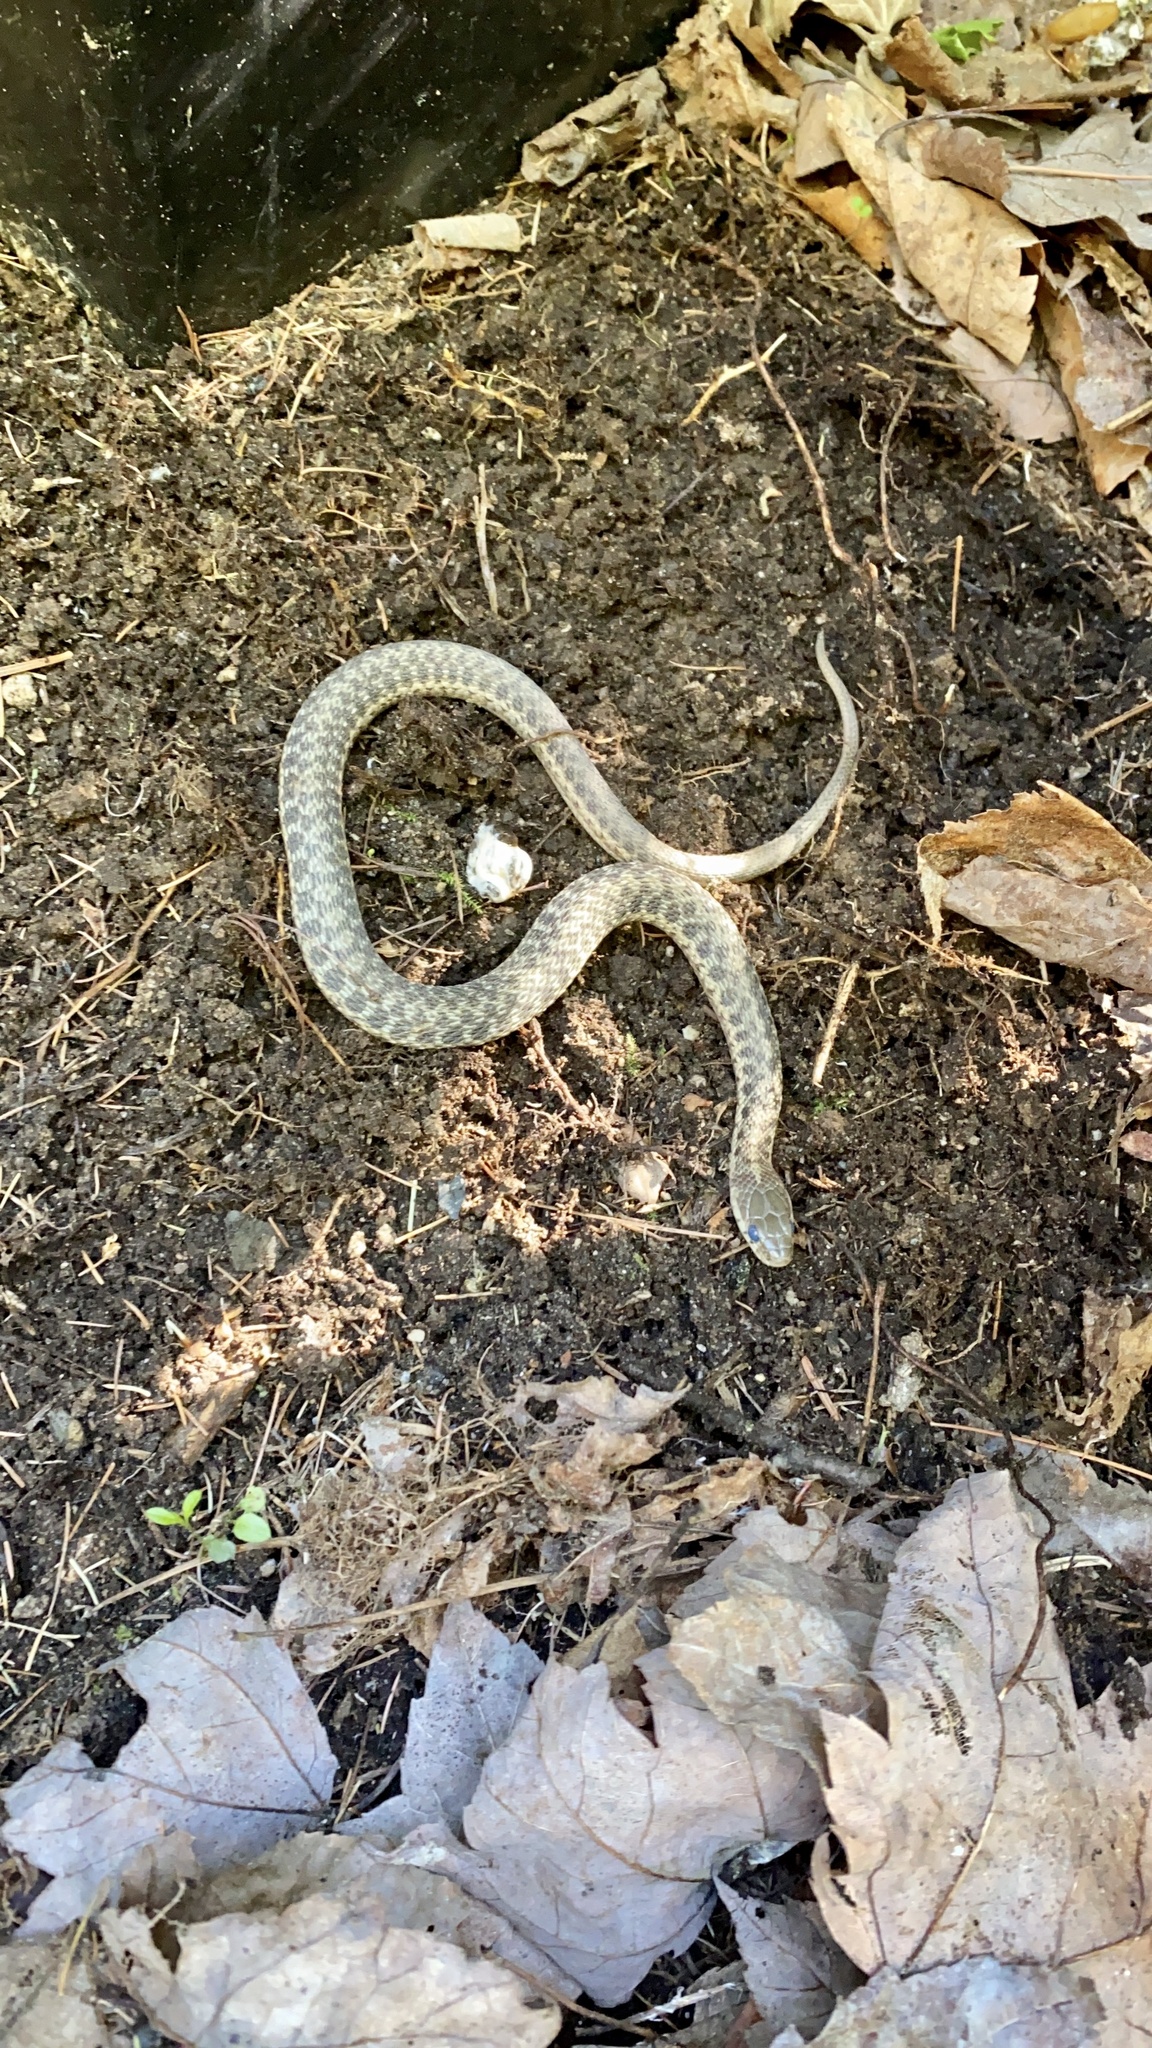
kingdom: Animalia
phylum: Chordata
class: Squamata
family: Colubridae
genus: Thamnophis
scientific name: Thamnophis sirtalis
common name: Common garter snake
